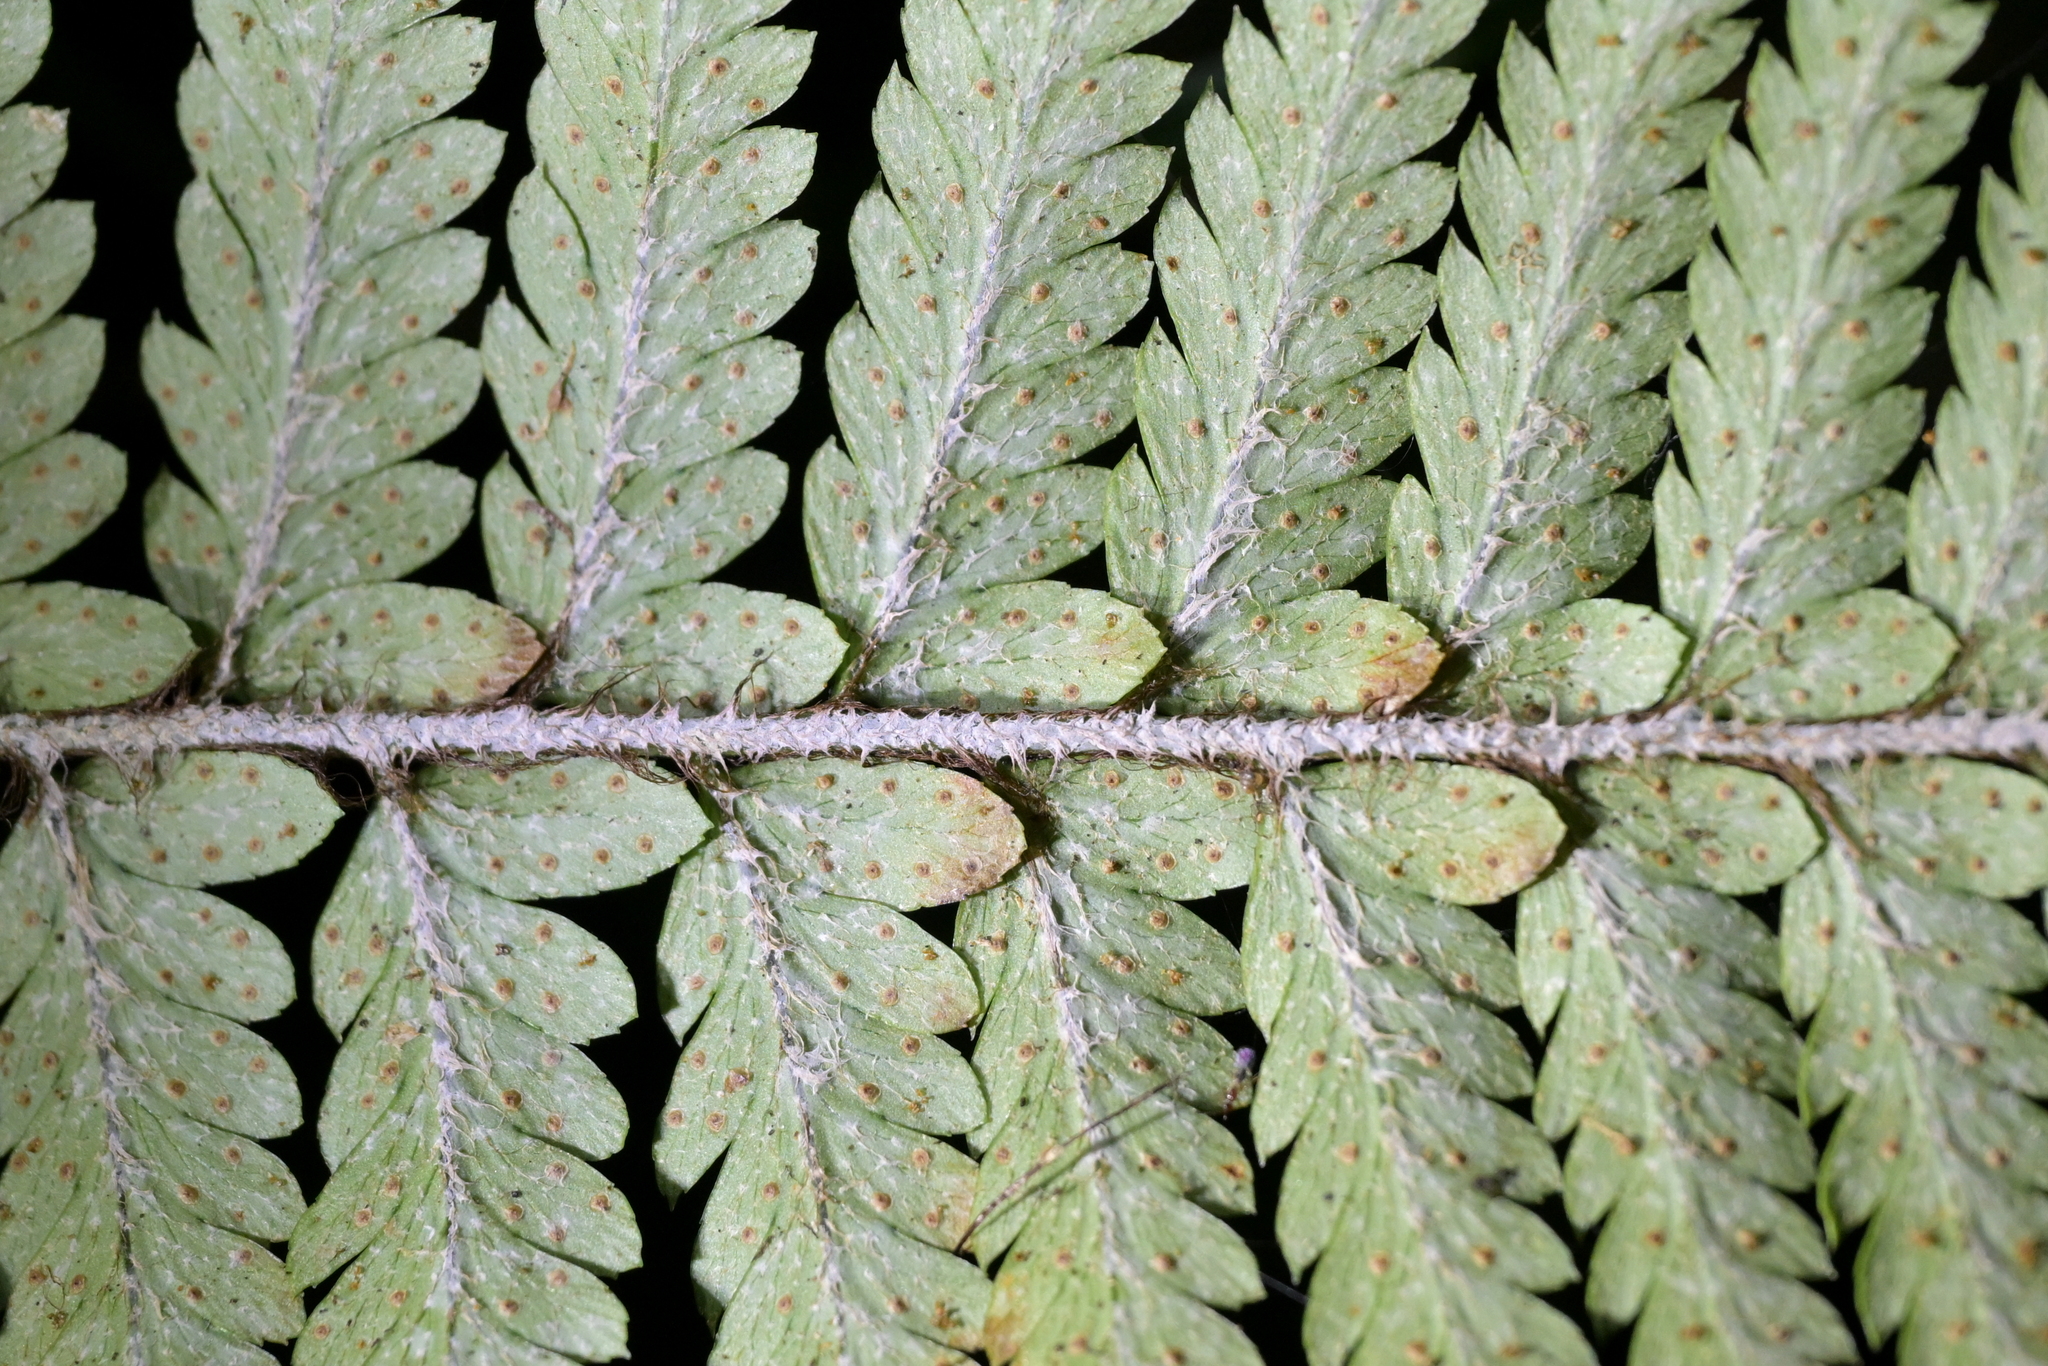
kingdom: Plantae
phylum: Tracheophyta
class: Polypodiopsida
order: Polypodiales
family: Dryopteridaceae
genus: Polystichum
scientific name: Polystichum wawranum
